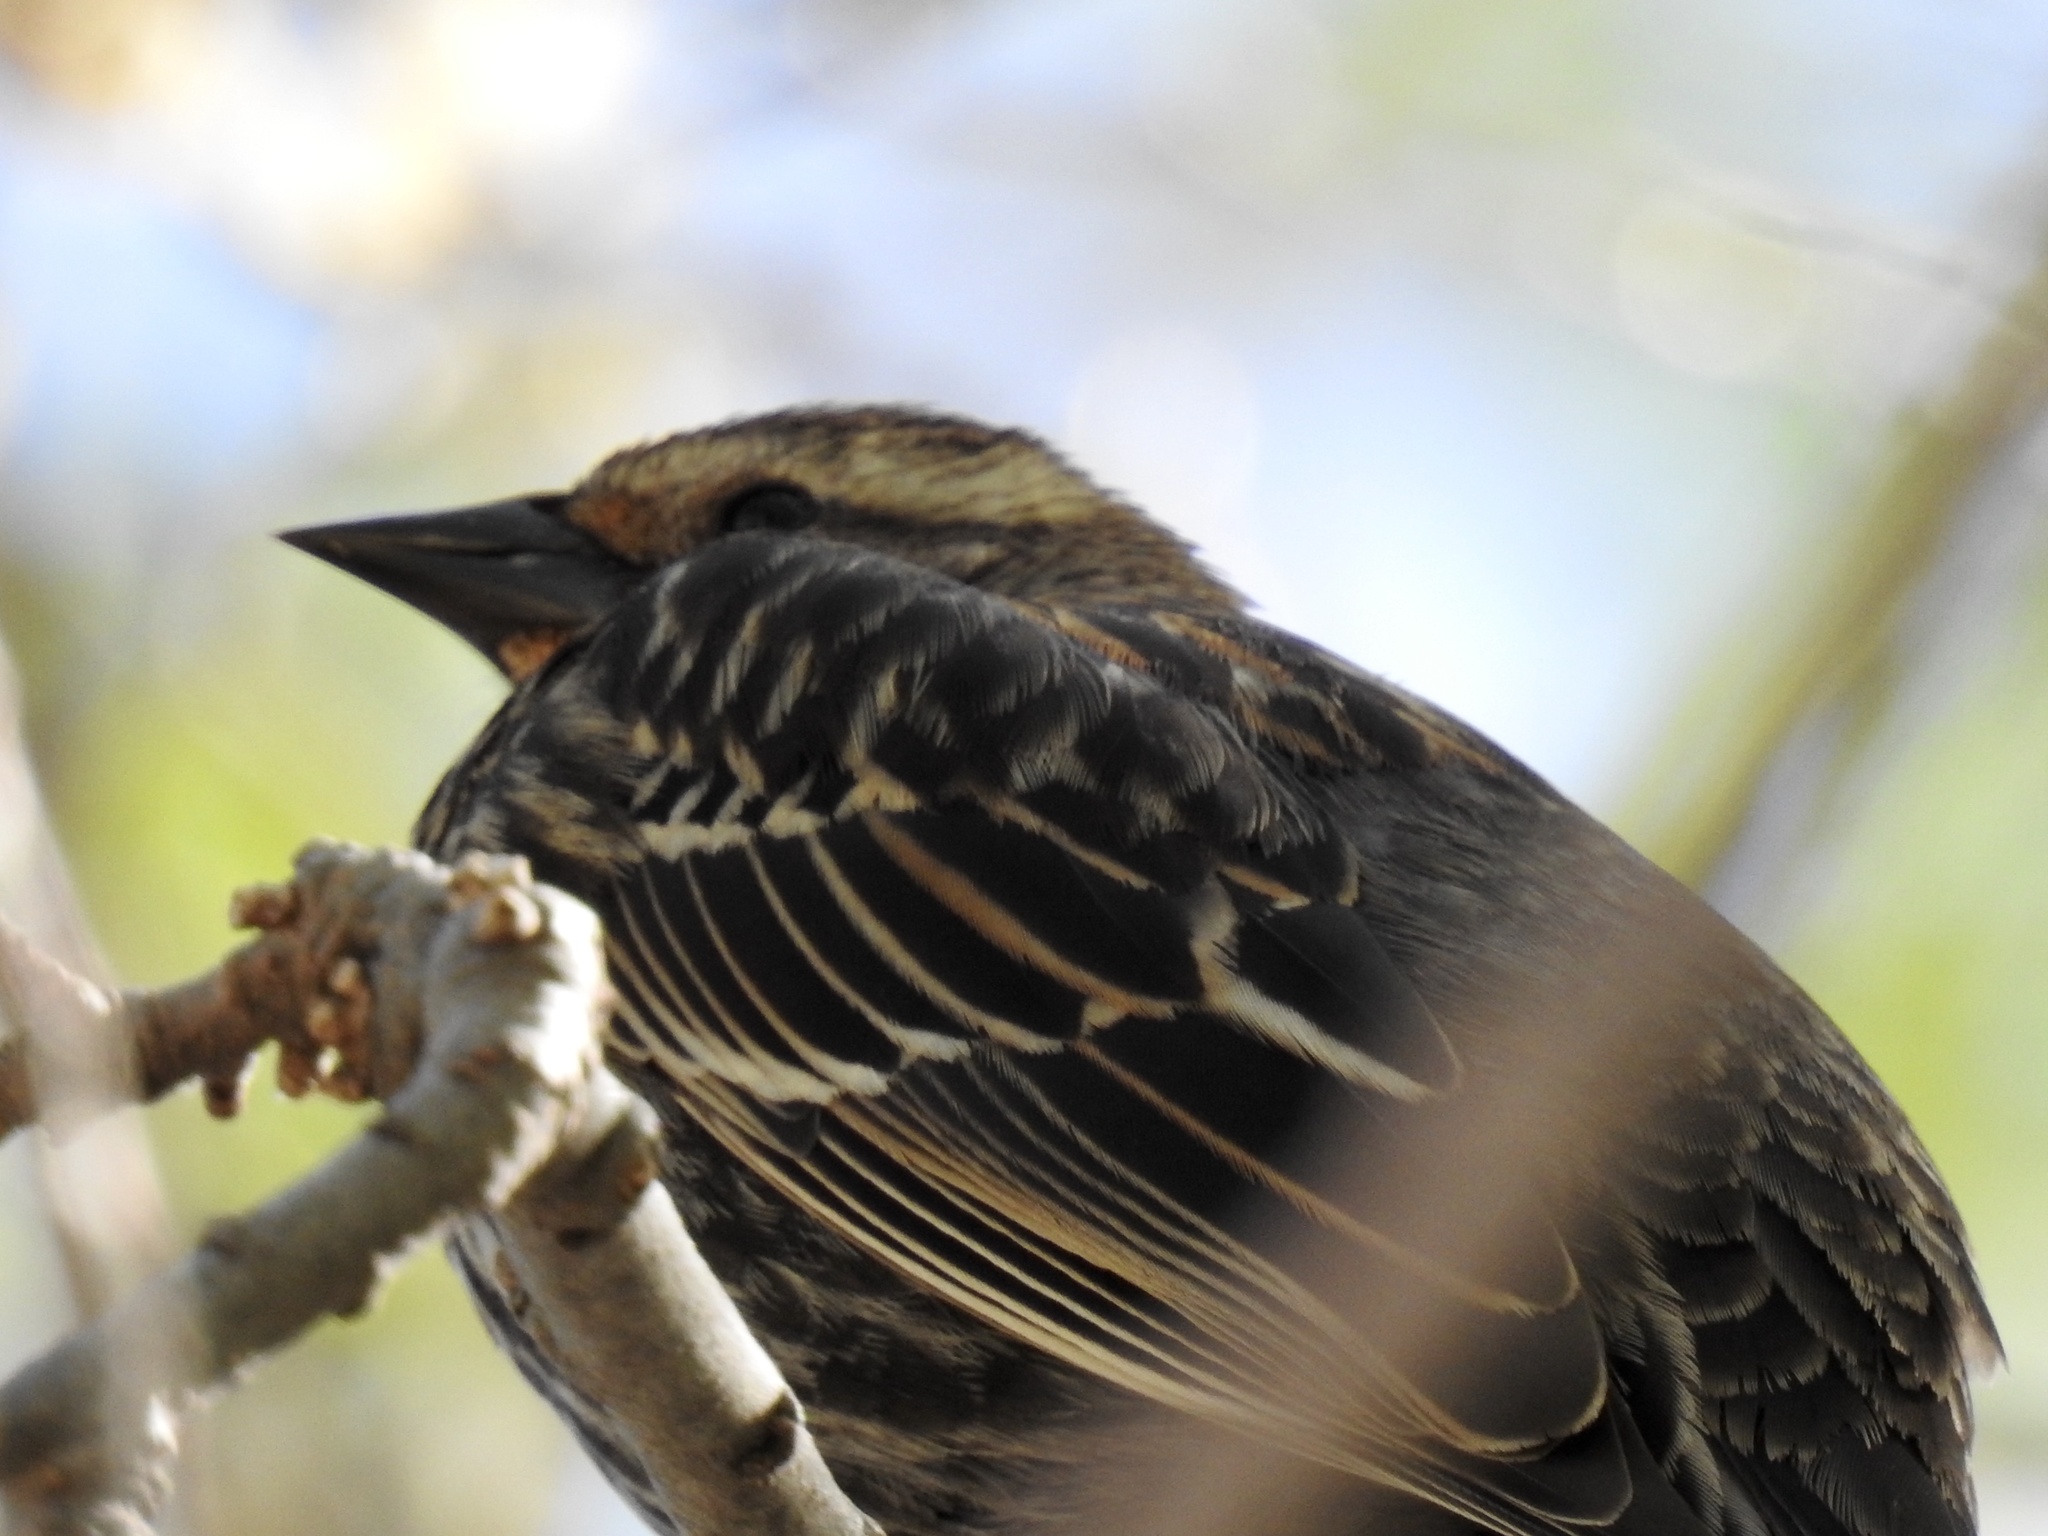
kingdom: Animalia
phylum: Chordata
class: Aves
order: Passeriformes
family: Icteridae
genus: Agelaius
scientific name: Agelaius phoeniceus
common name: Red-winged blackbird
